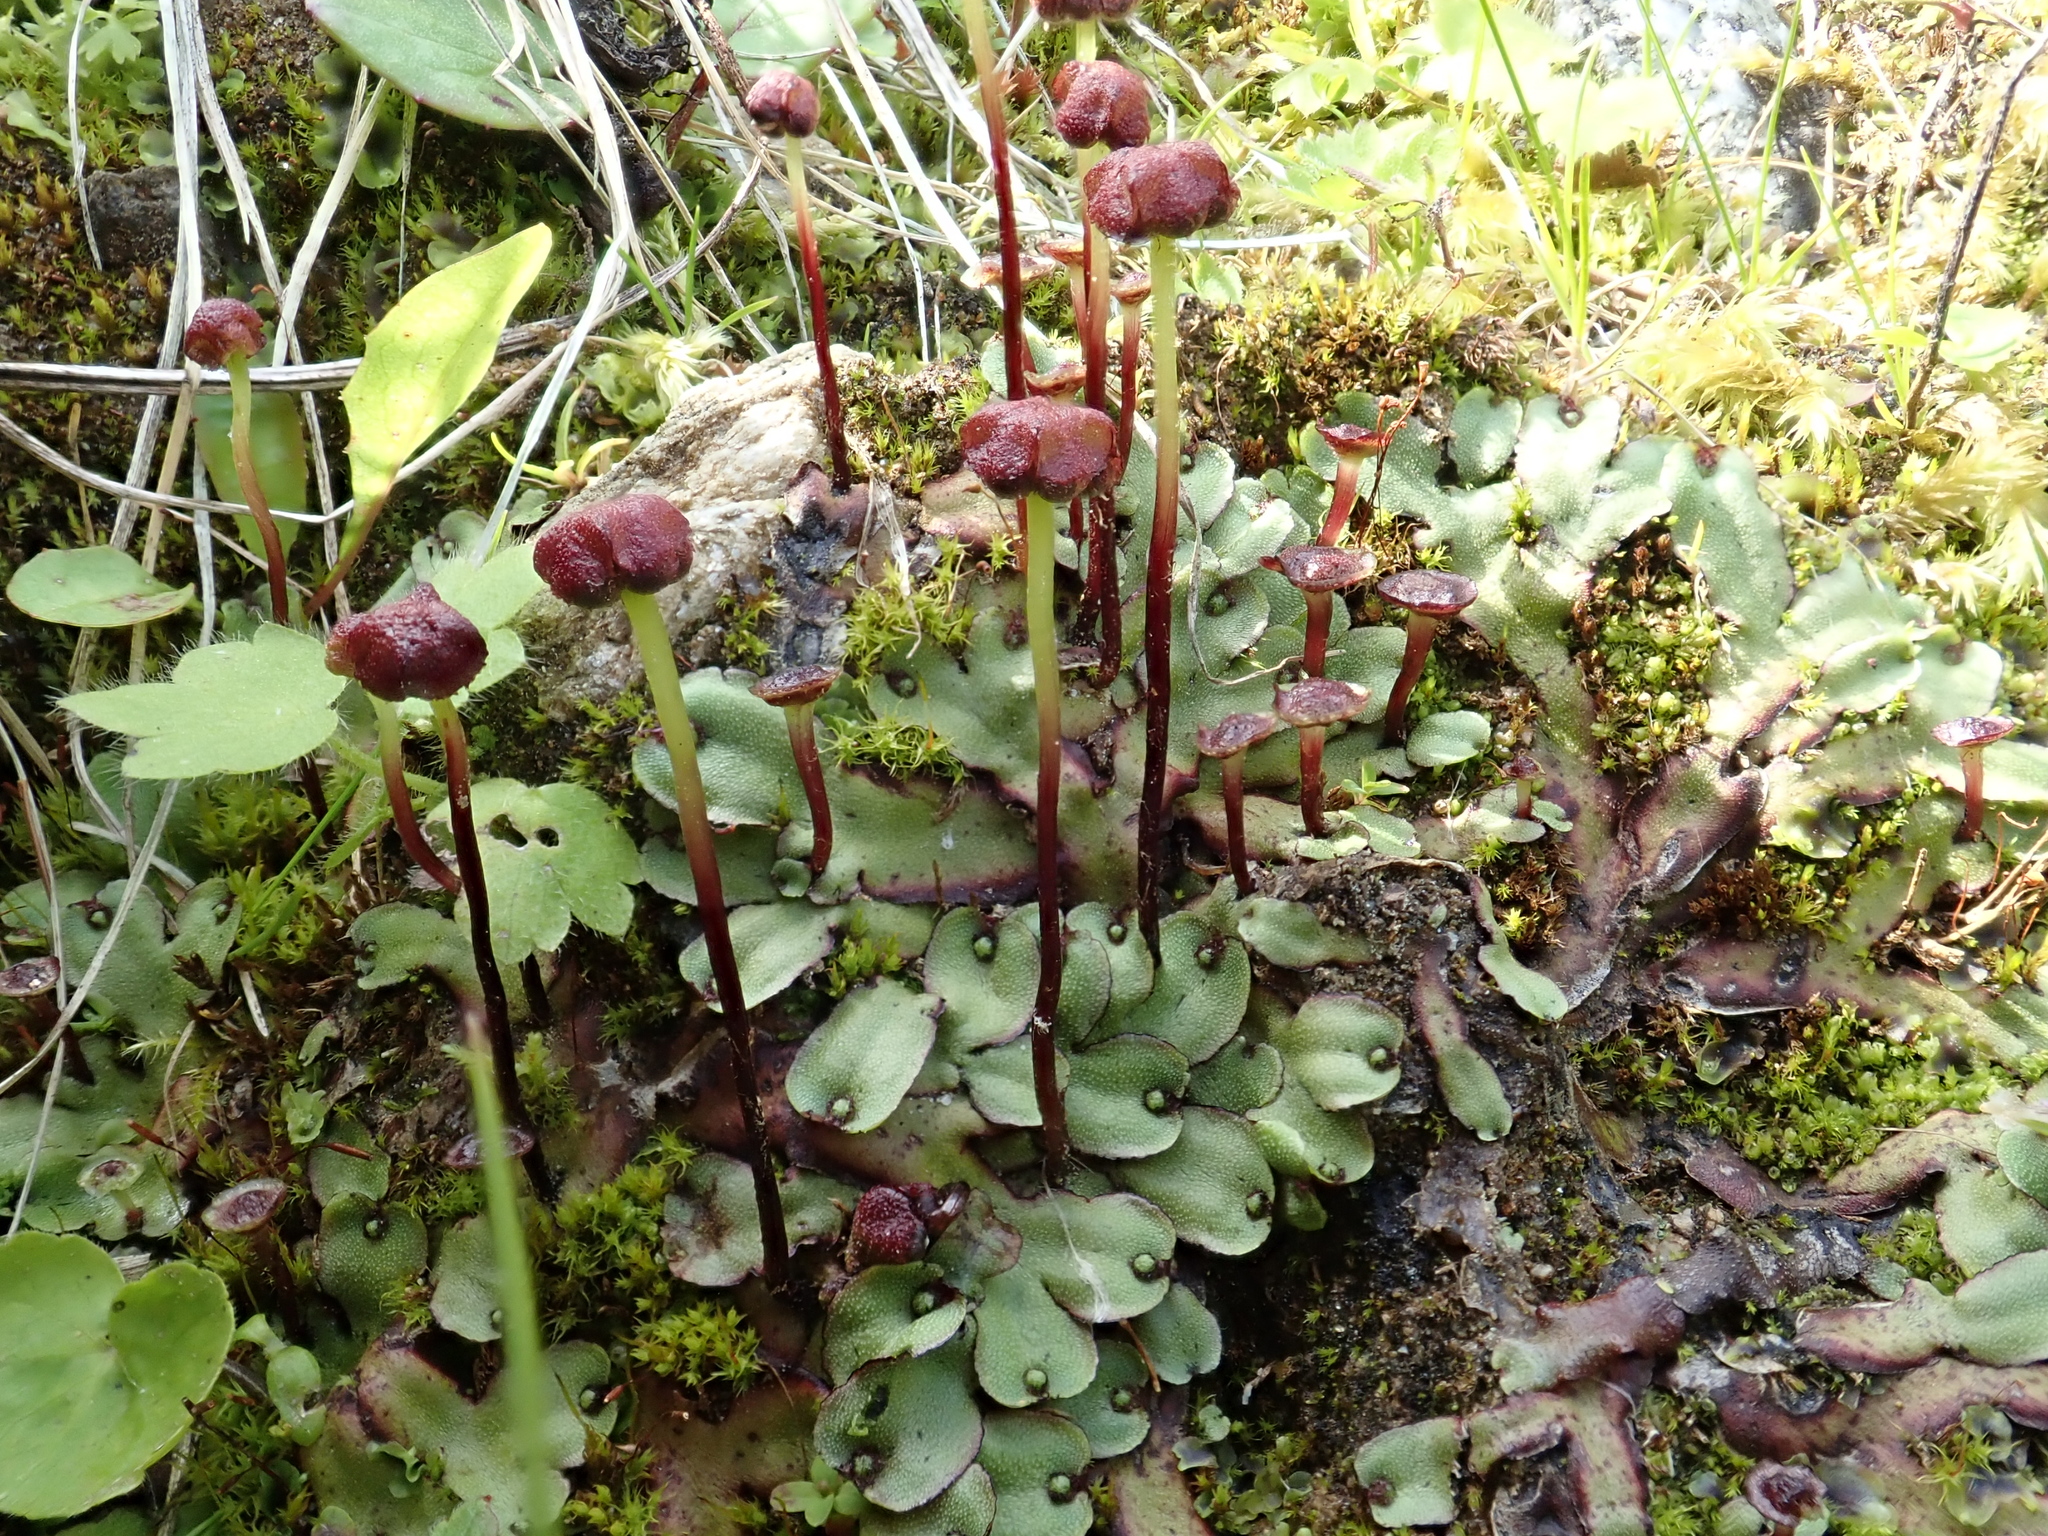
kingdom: Plantae
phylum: Marchantiophyta
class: Marchantiopsida
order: Marchantiales
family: Marchantiaceae
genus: Marchantia
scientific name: Marchantia quadrata
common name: Narrow mushroom-headed liverwort
